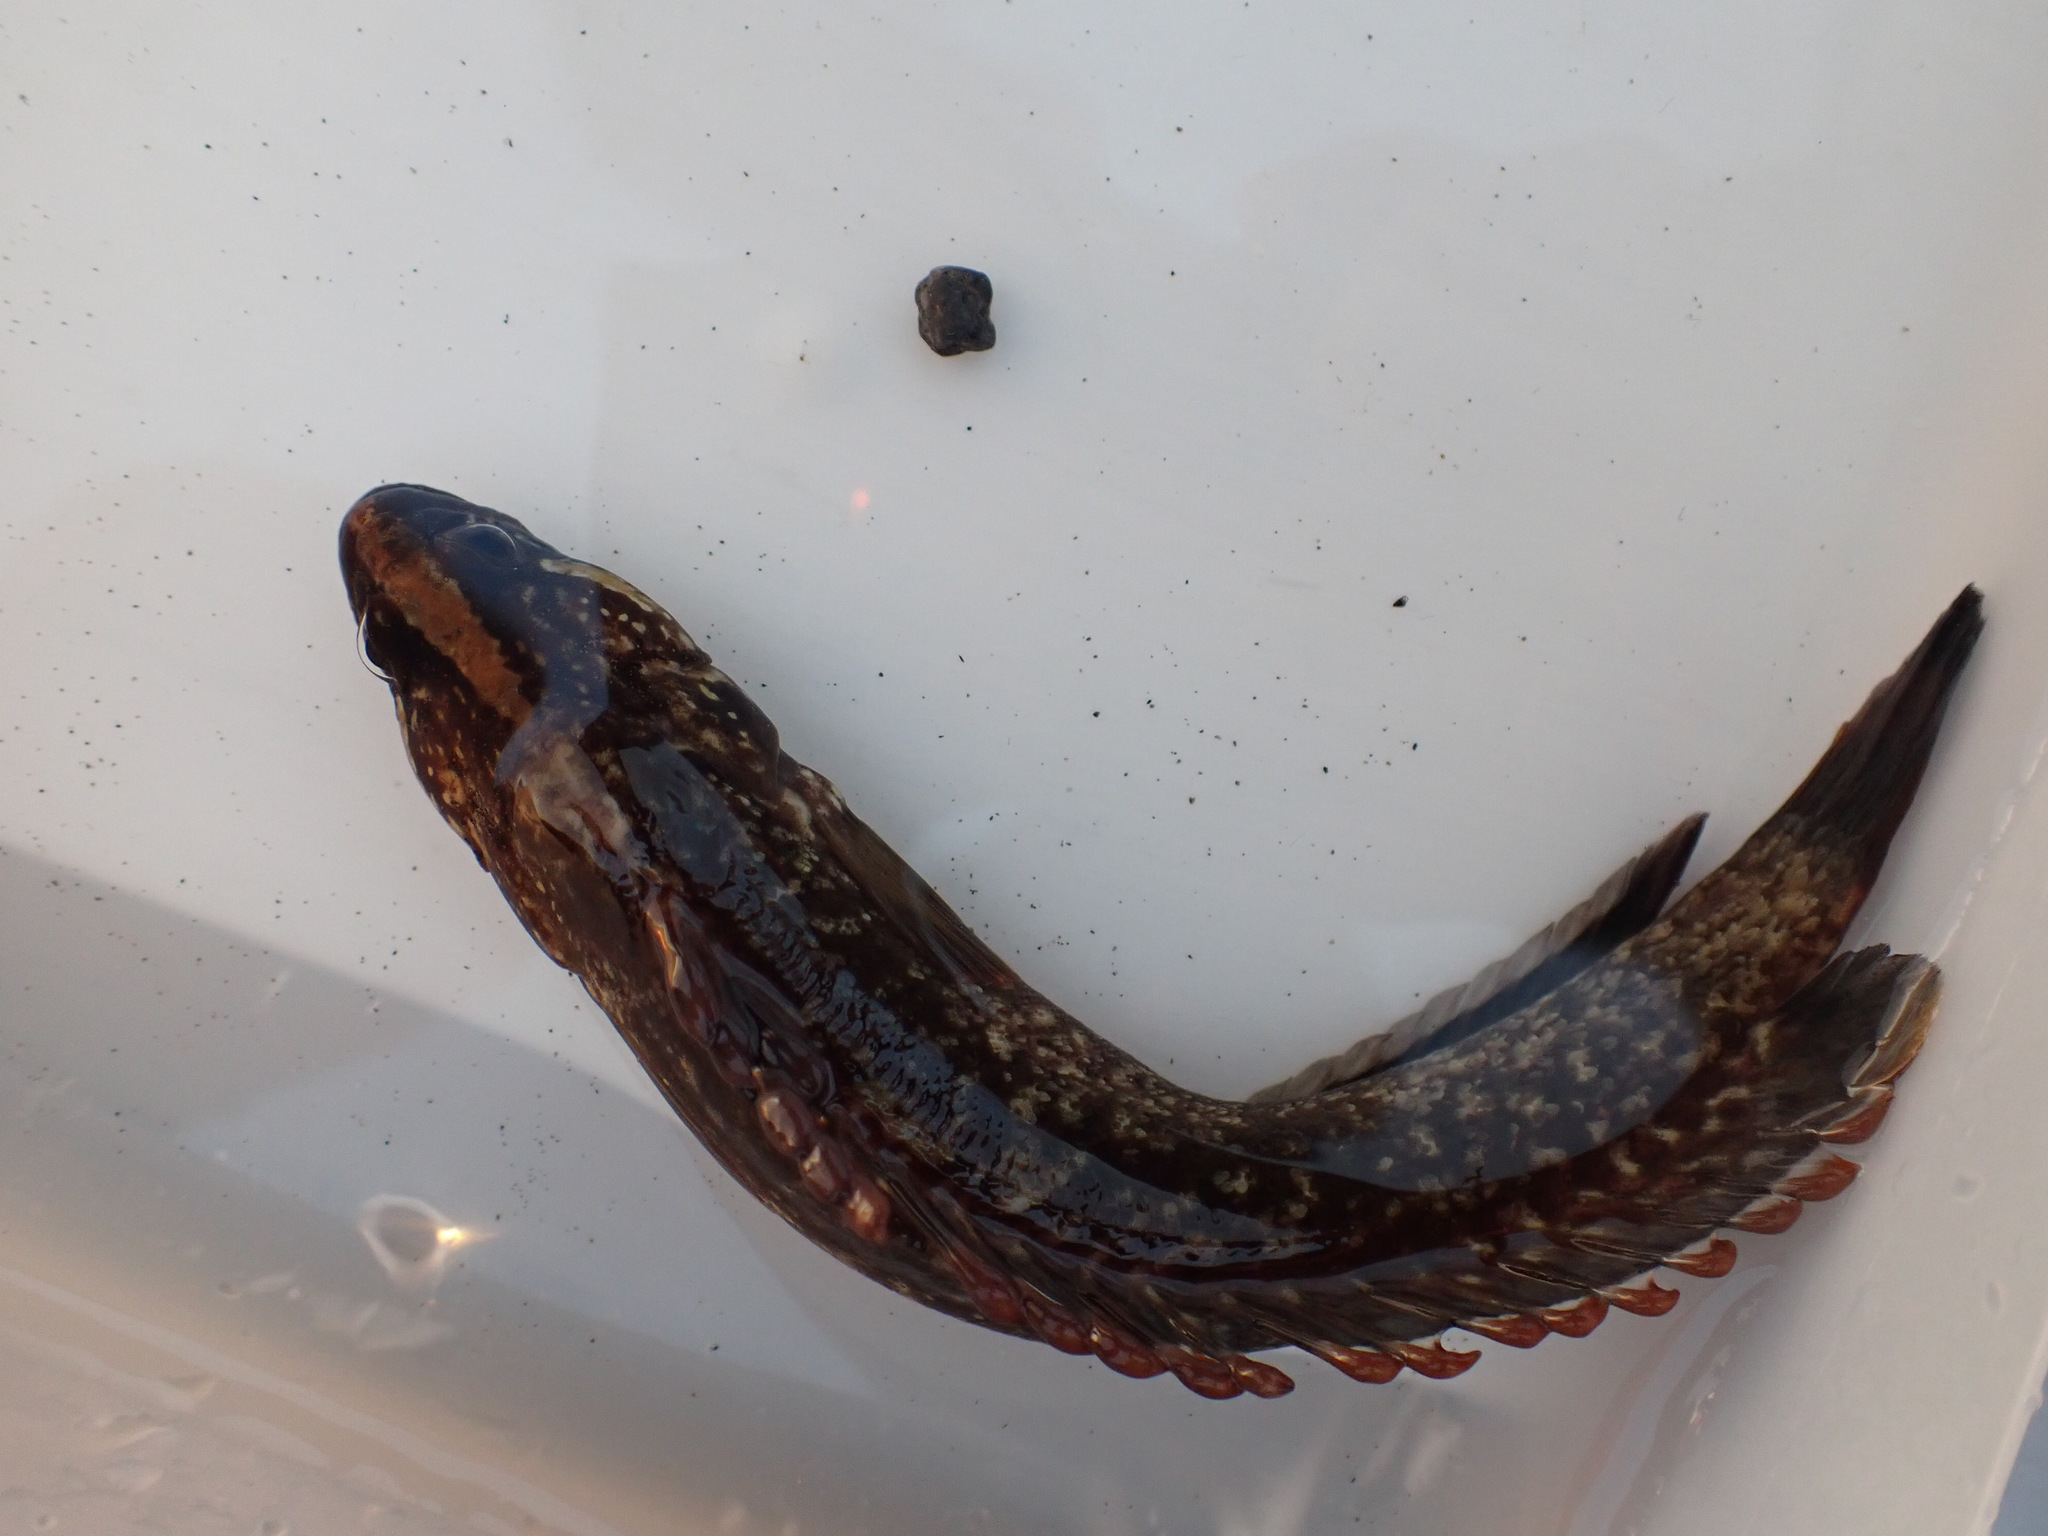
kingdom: Animalia
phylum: Chordata
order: Perciformes
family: Plesiopidae
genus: Acanthoclinus
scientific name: Acanthoclinus fuscus
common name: Olive rockfish
